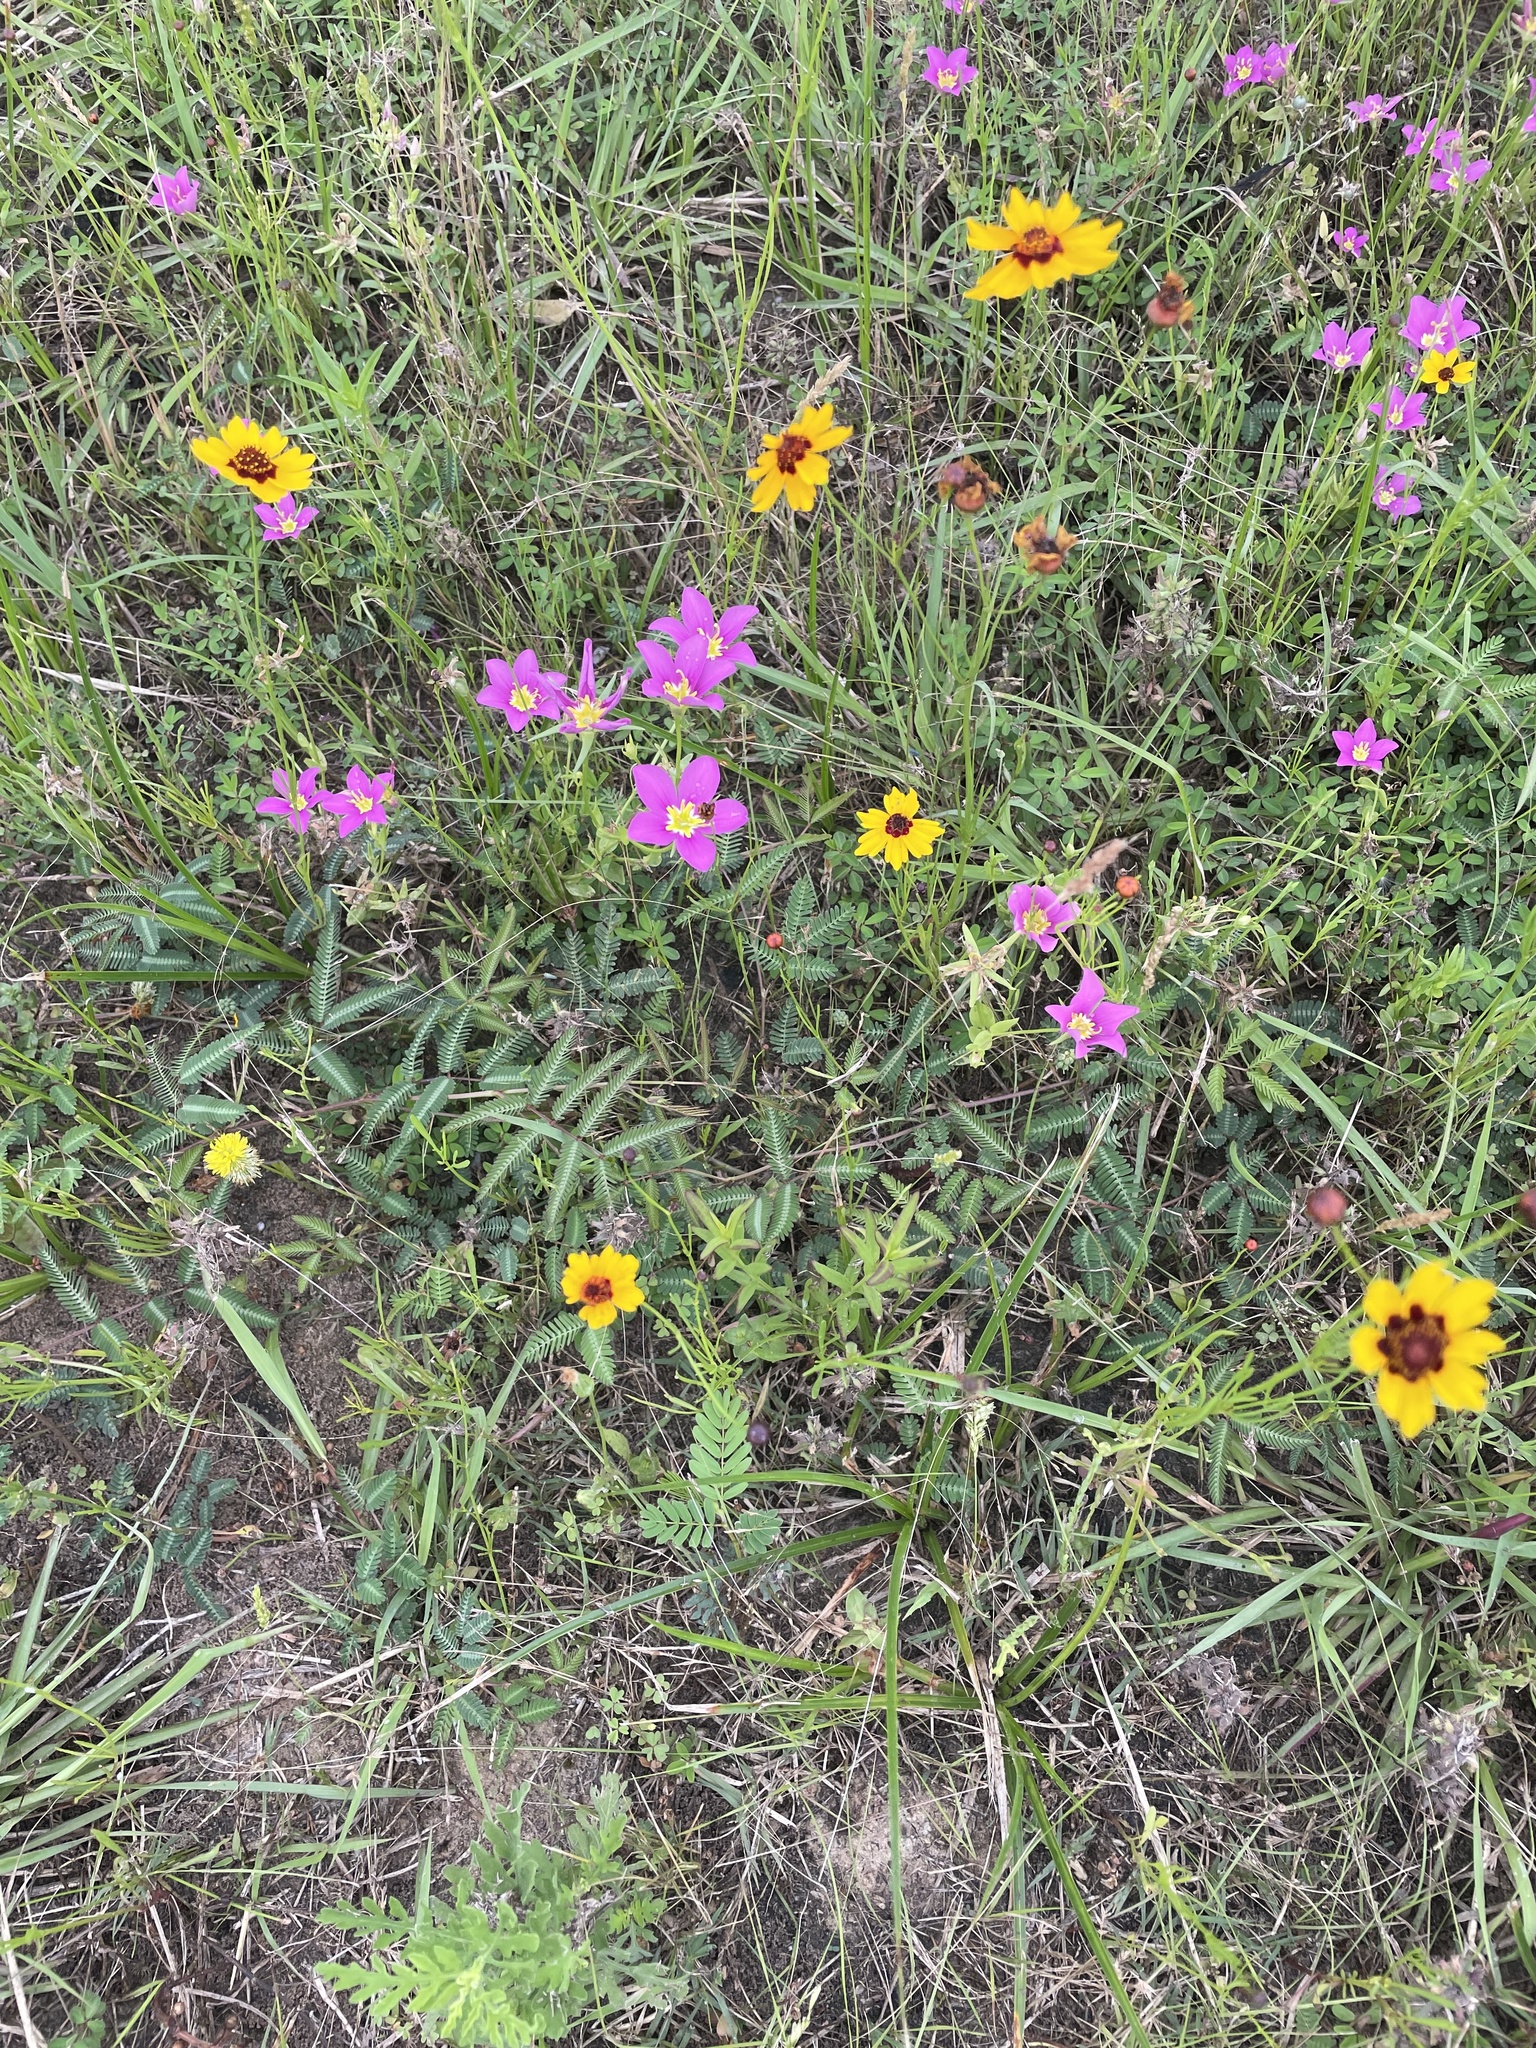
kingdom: Plantae
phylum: Tracheophyta
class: Magnoliopsida
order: Gentianales
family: Gentianaceae
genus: Sabatia
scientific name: Sabatia campestris
